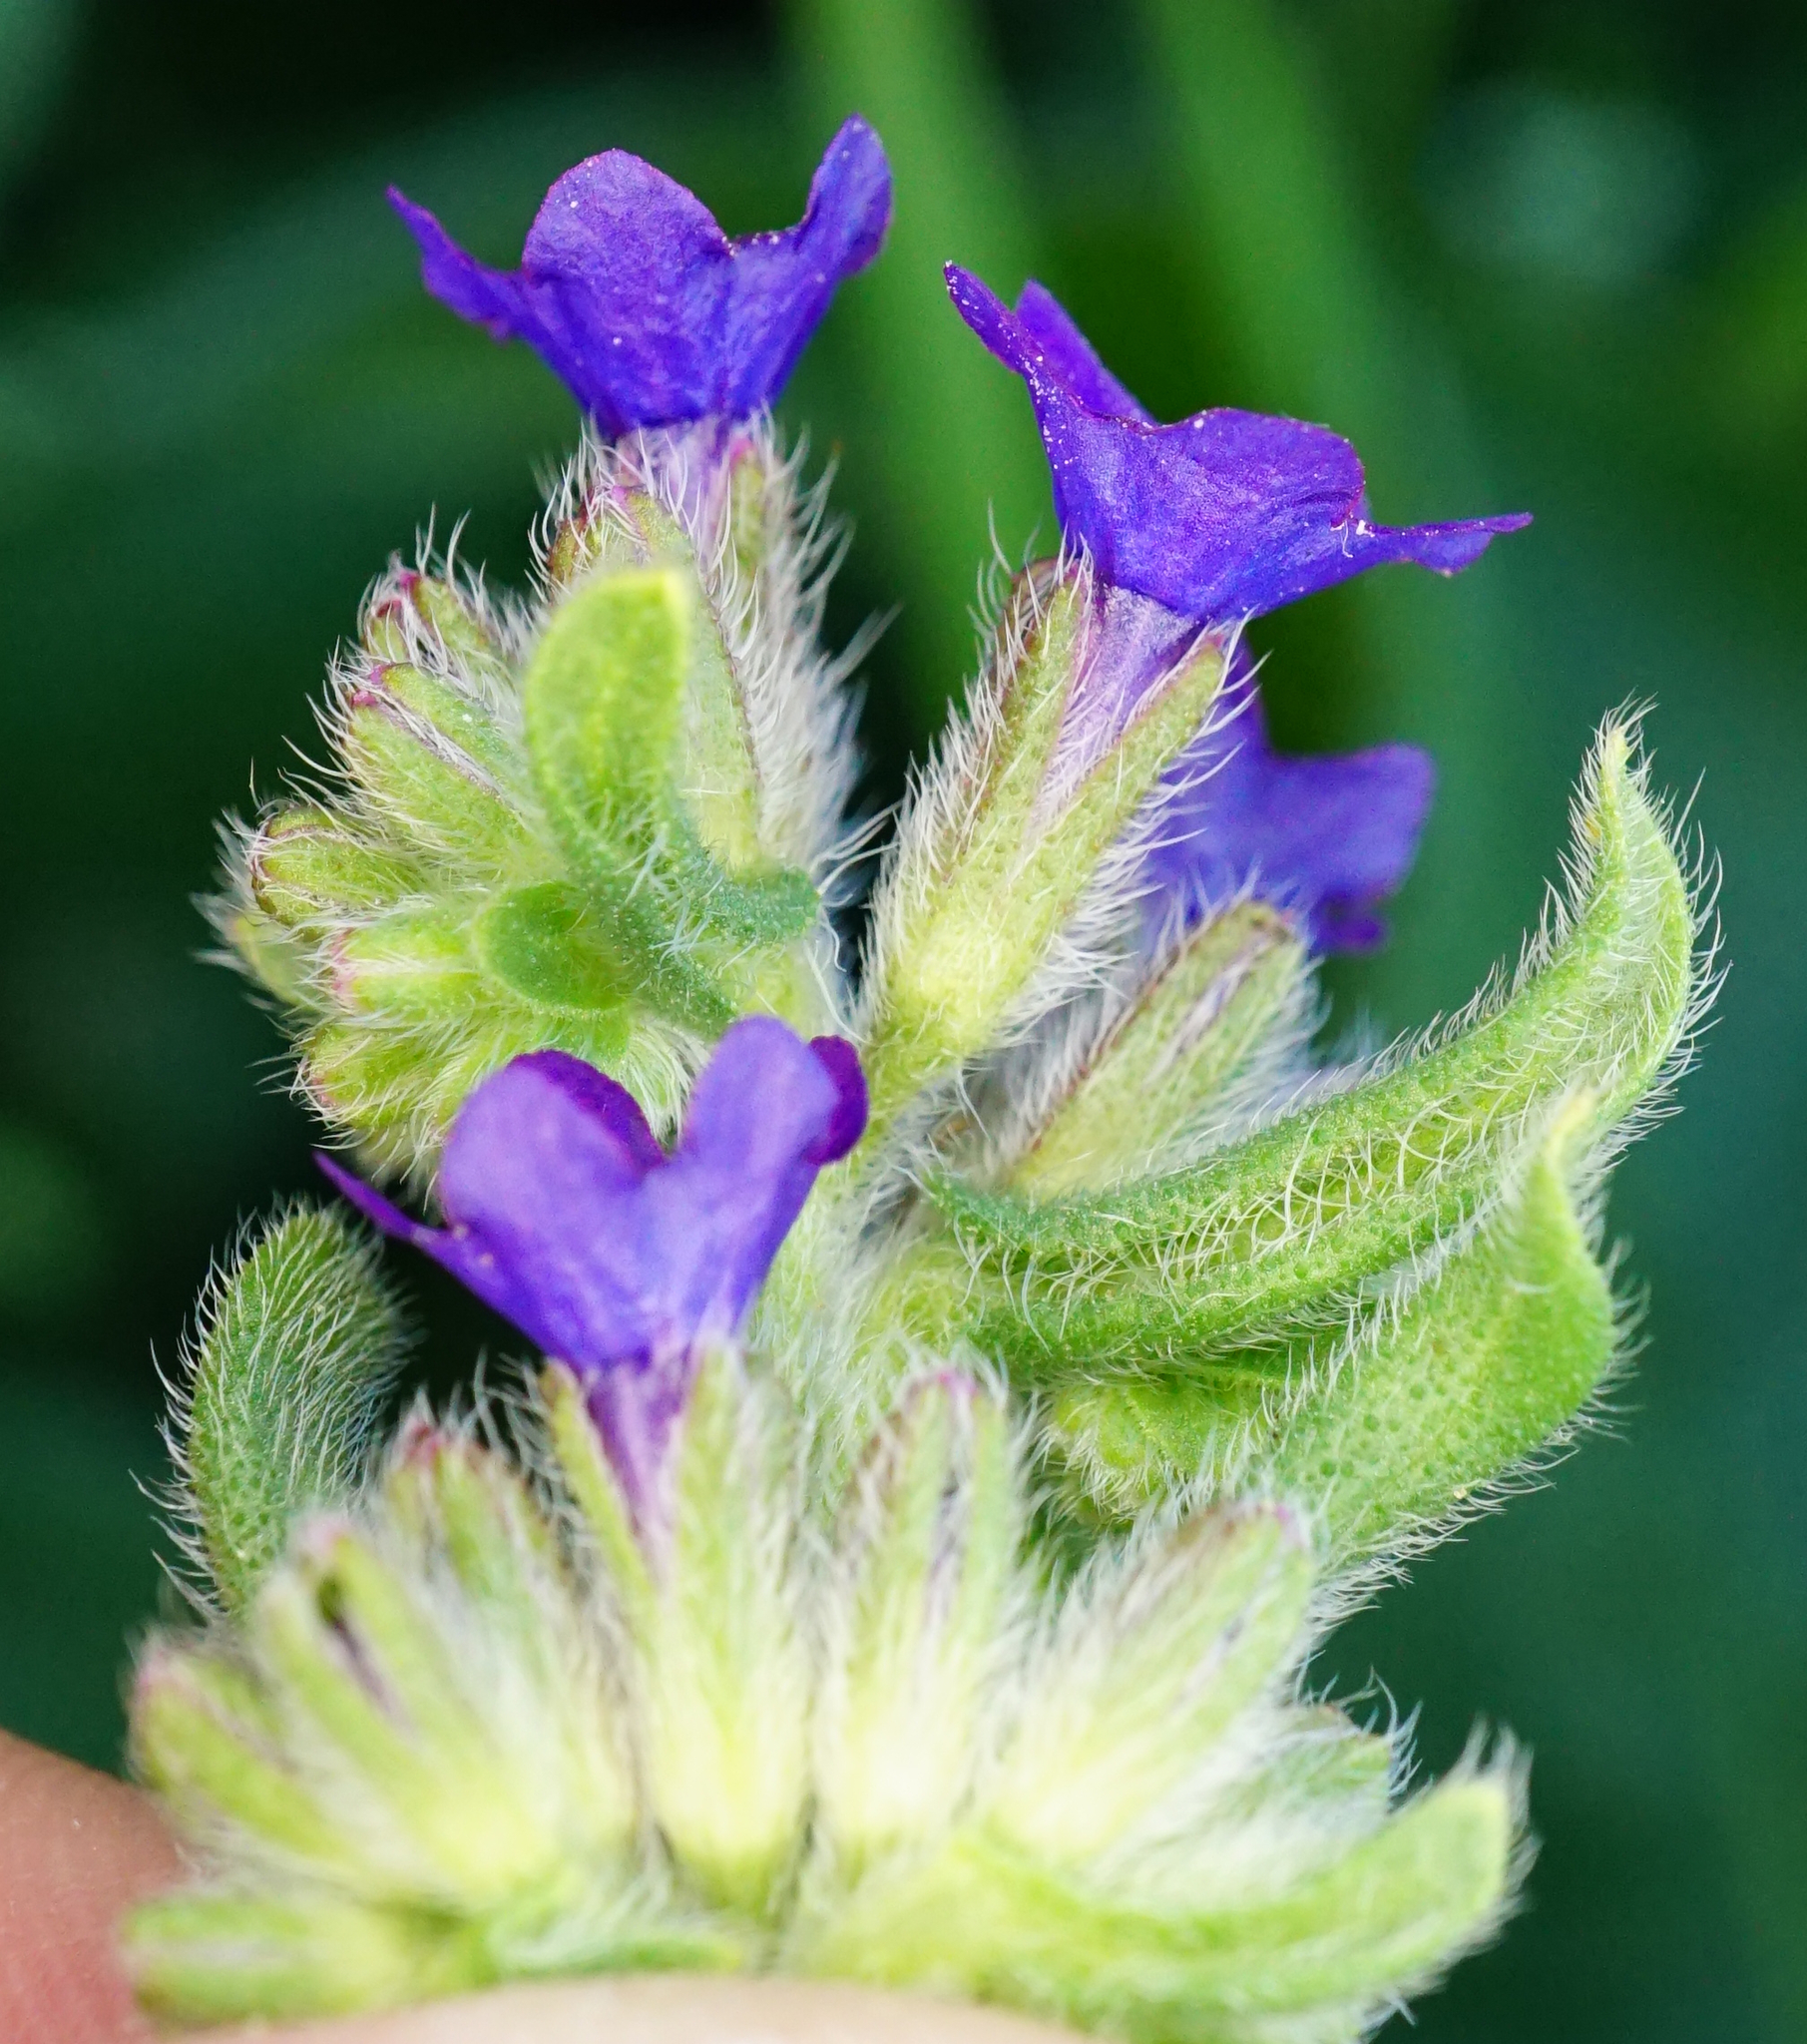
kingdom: Plantae
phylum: Tracheophyta
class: Magnoliopsida
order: Boraginales
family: Boraginaceae
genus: Anchusa
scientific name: Anchusa officinalis
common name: Alkanet
